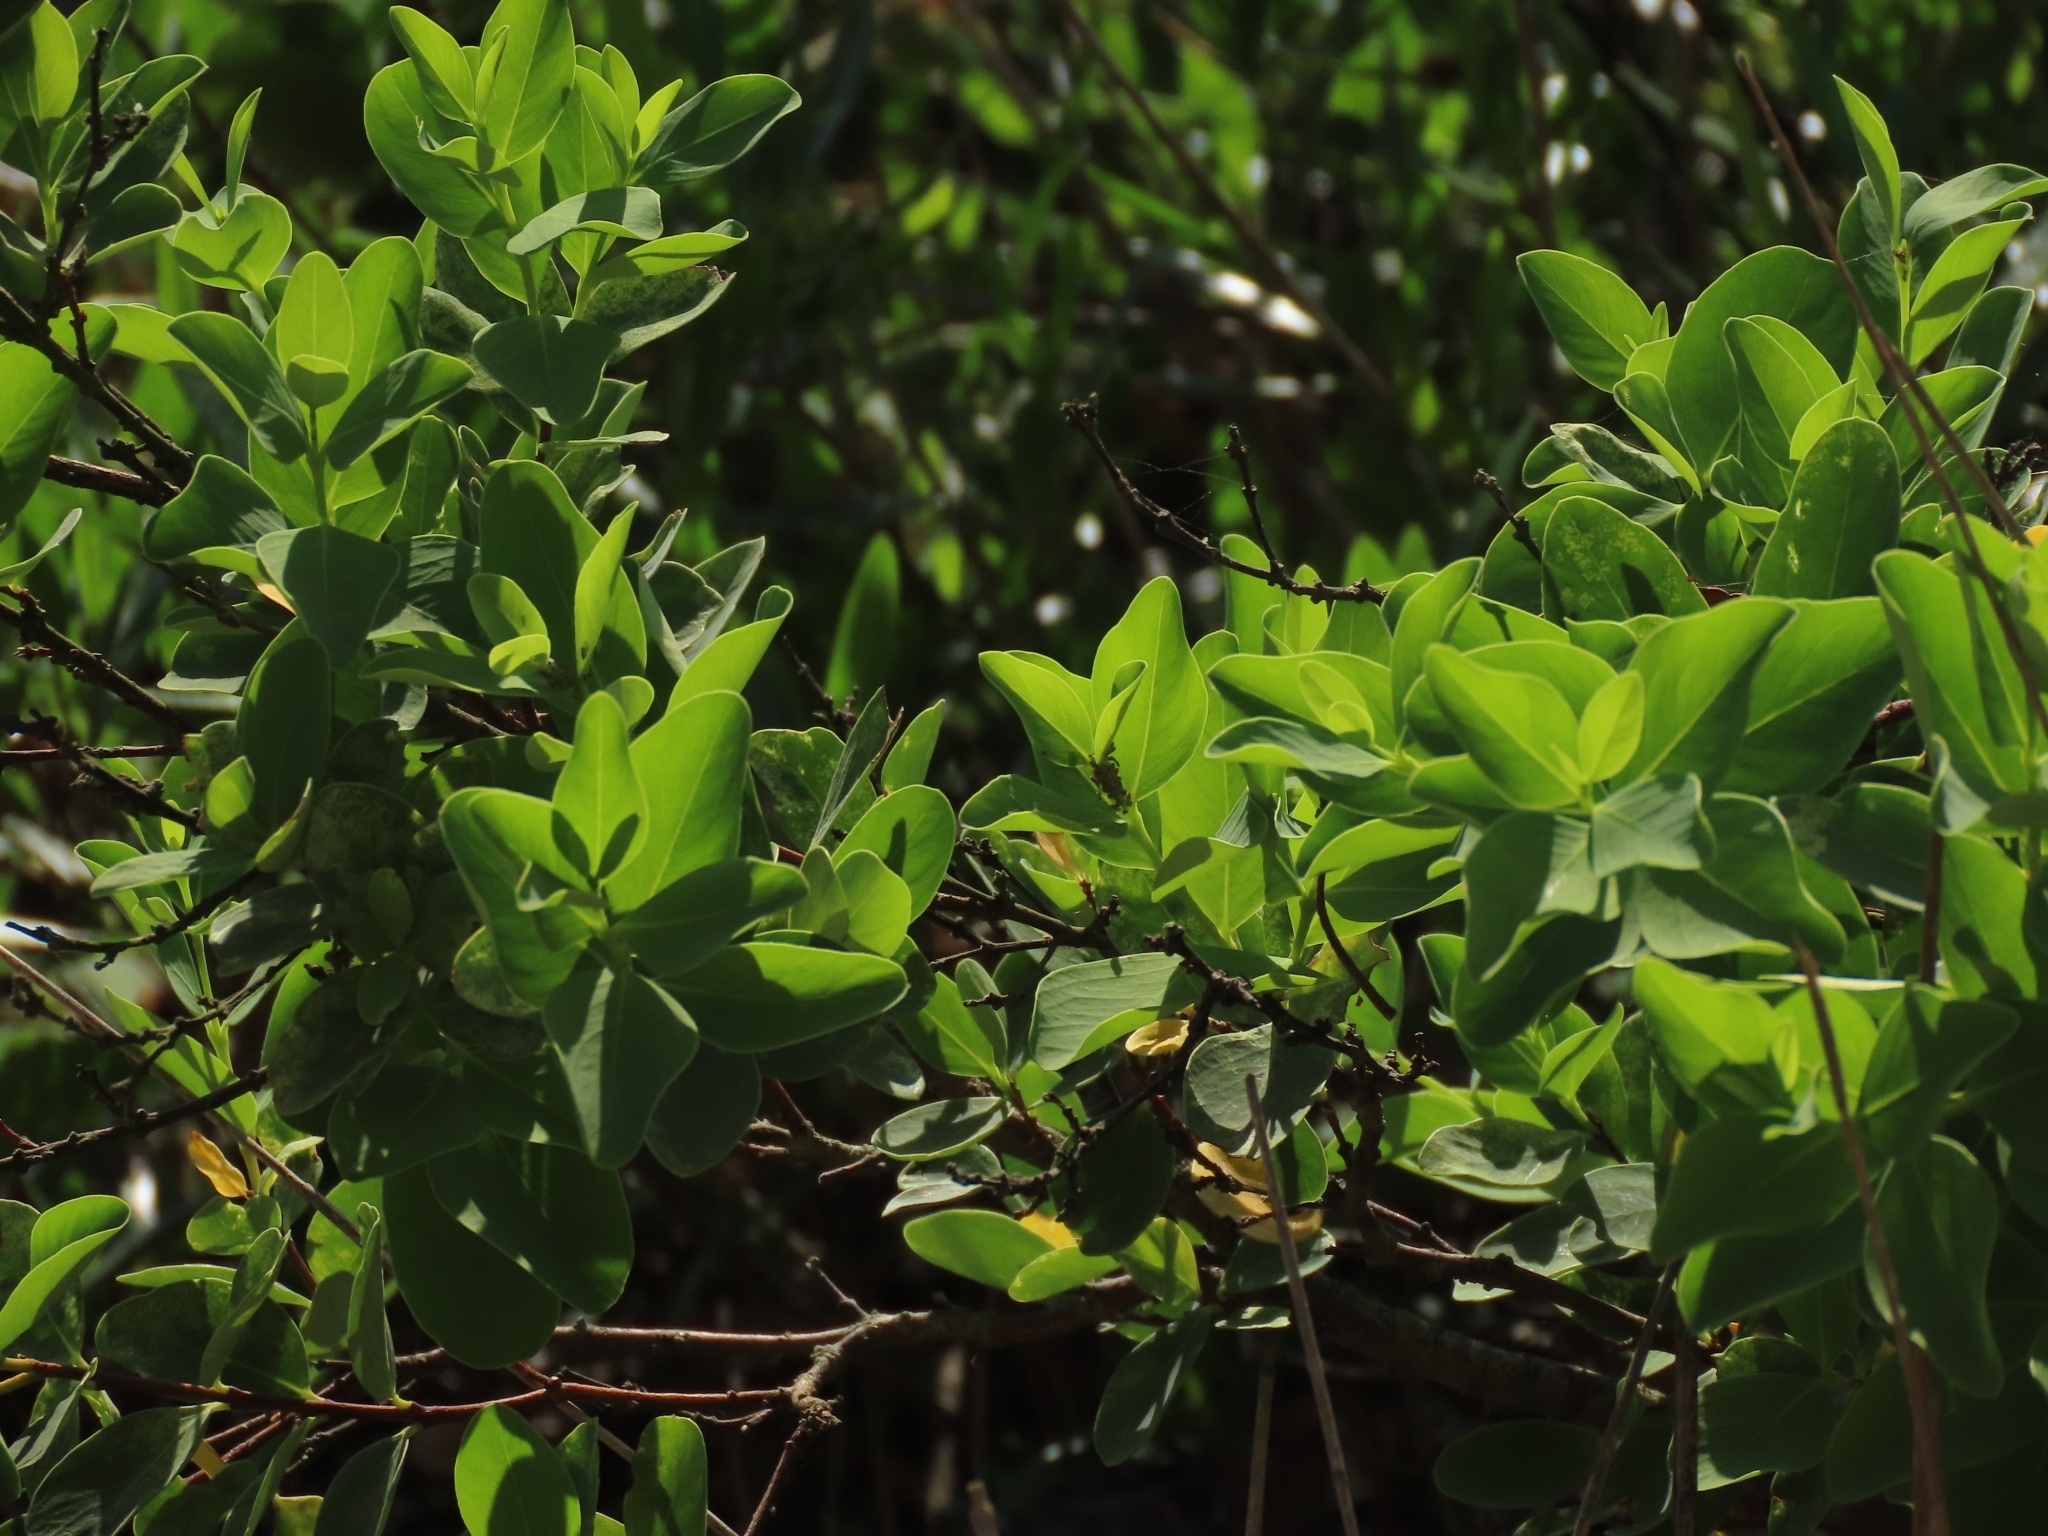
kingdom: Plantae
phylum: Tracheophyta
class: Magnoliopsida
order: Malvales
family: Thymelaeaceae
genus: Wikstroemia
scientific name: Wikstroemia indica
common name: Tiebush
